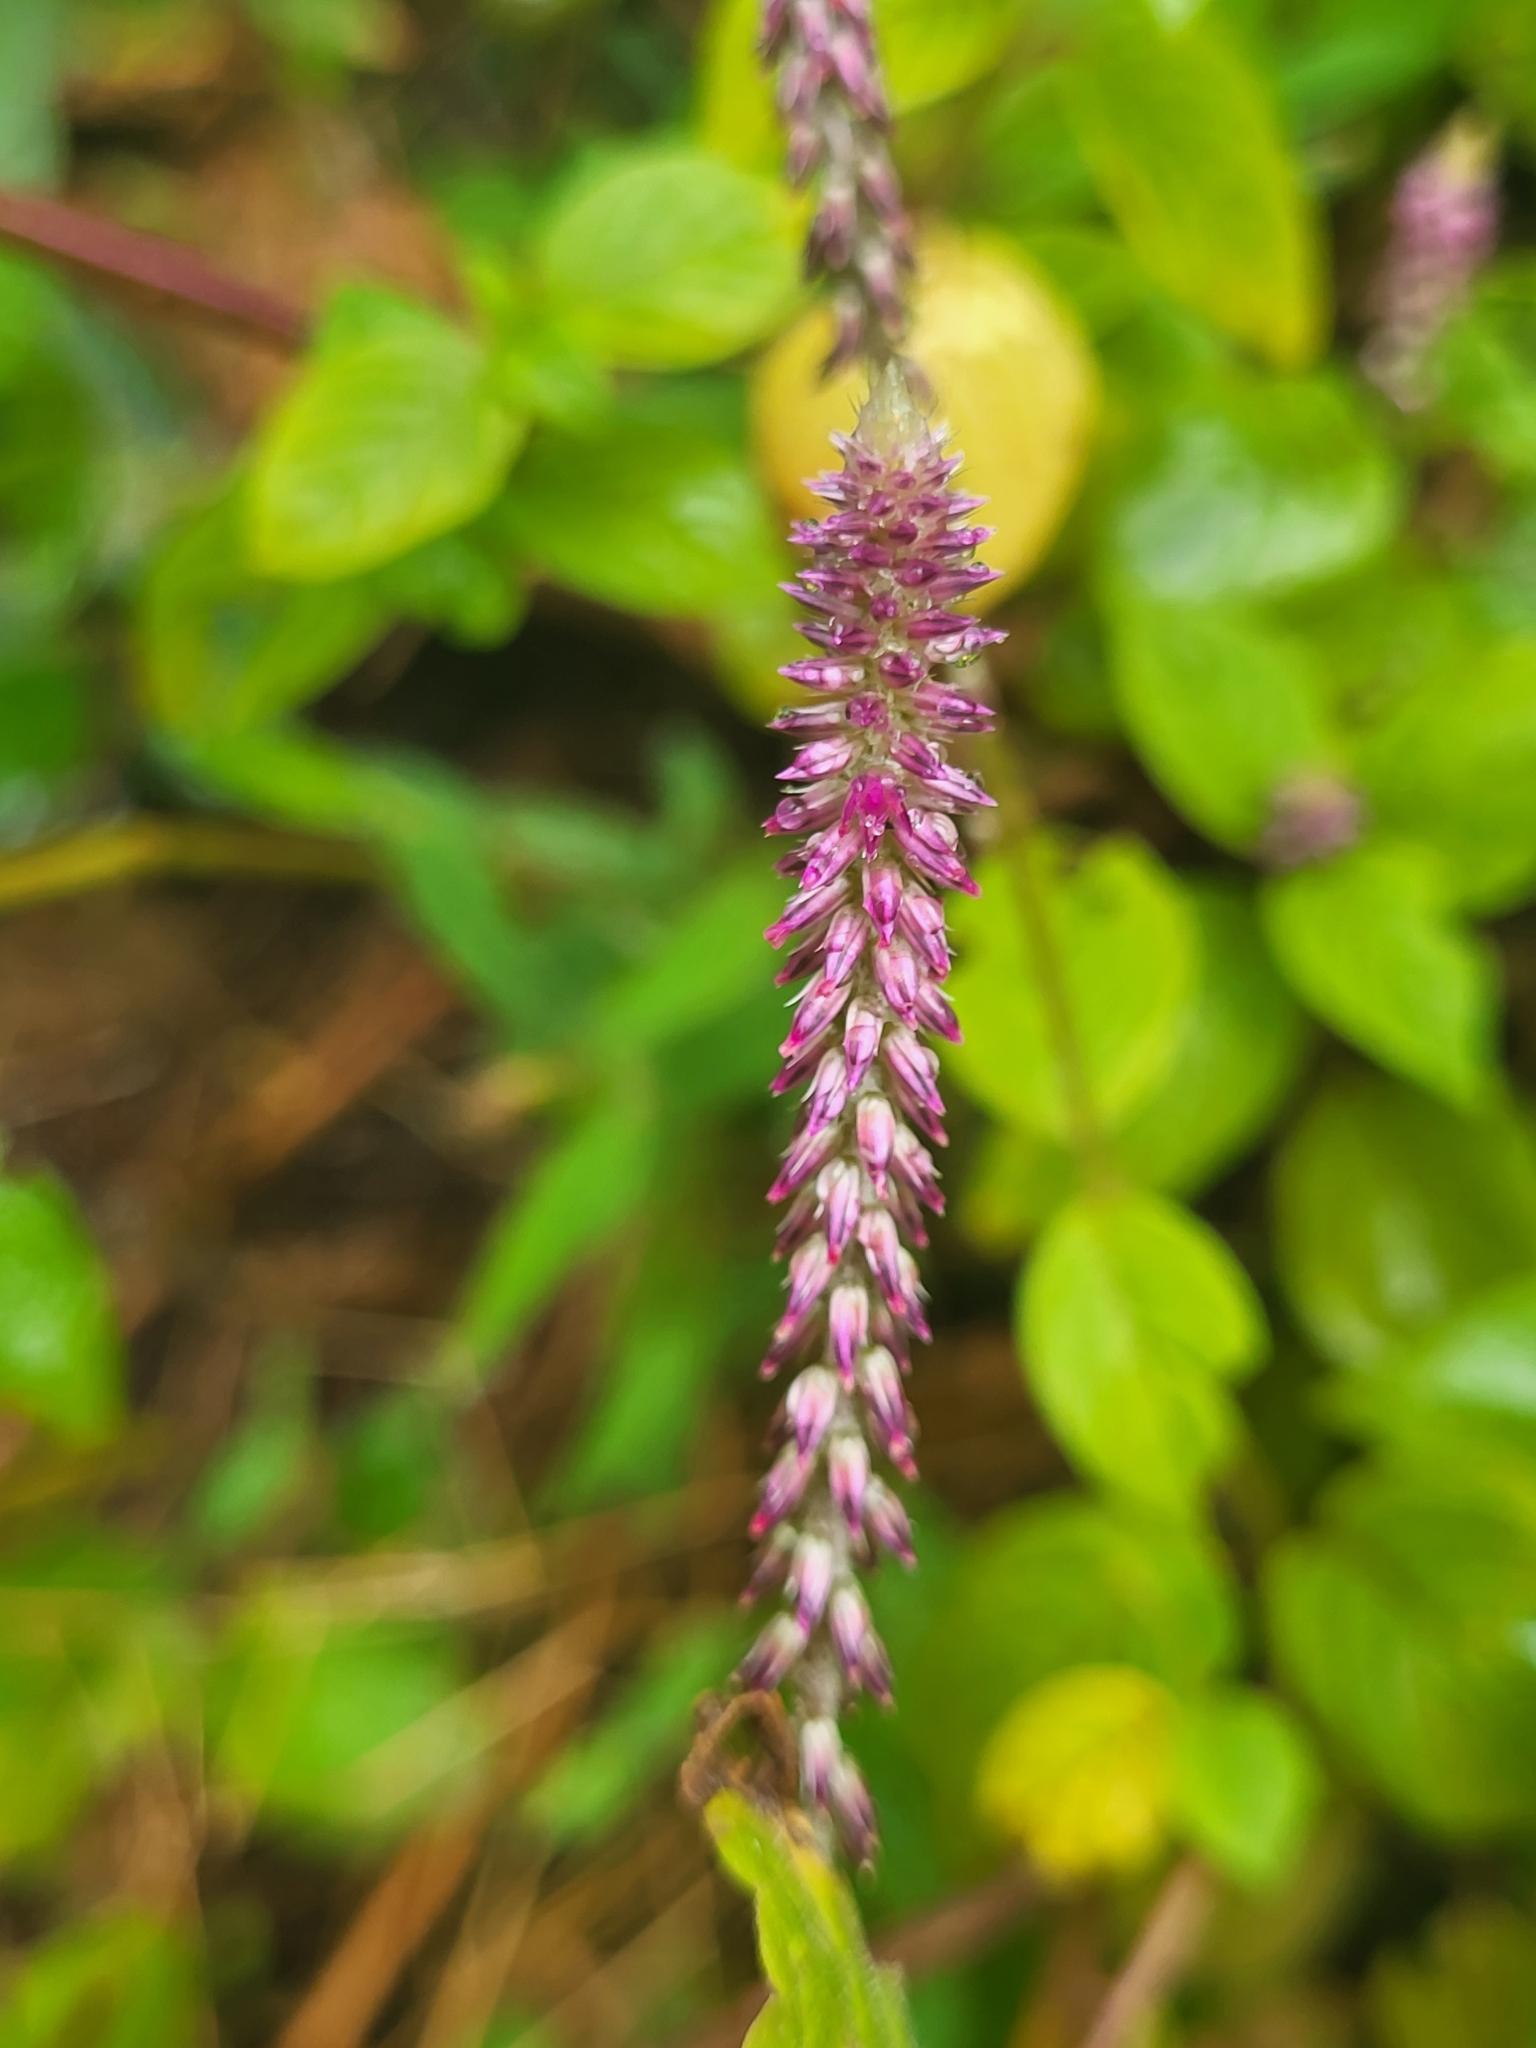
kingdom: Plantae
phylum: Tracheophyta
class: Magnoliopsida
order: Caryophyllales
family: Amaranthaceae
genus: Achyranthes
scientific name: Achyranthes aspera
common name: Devil's horsewhip
